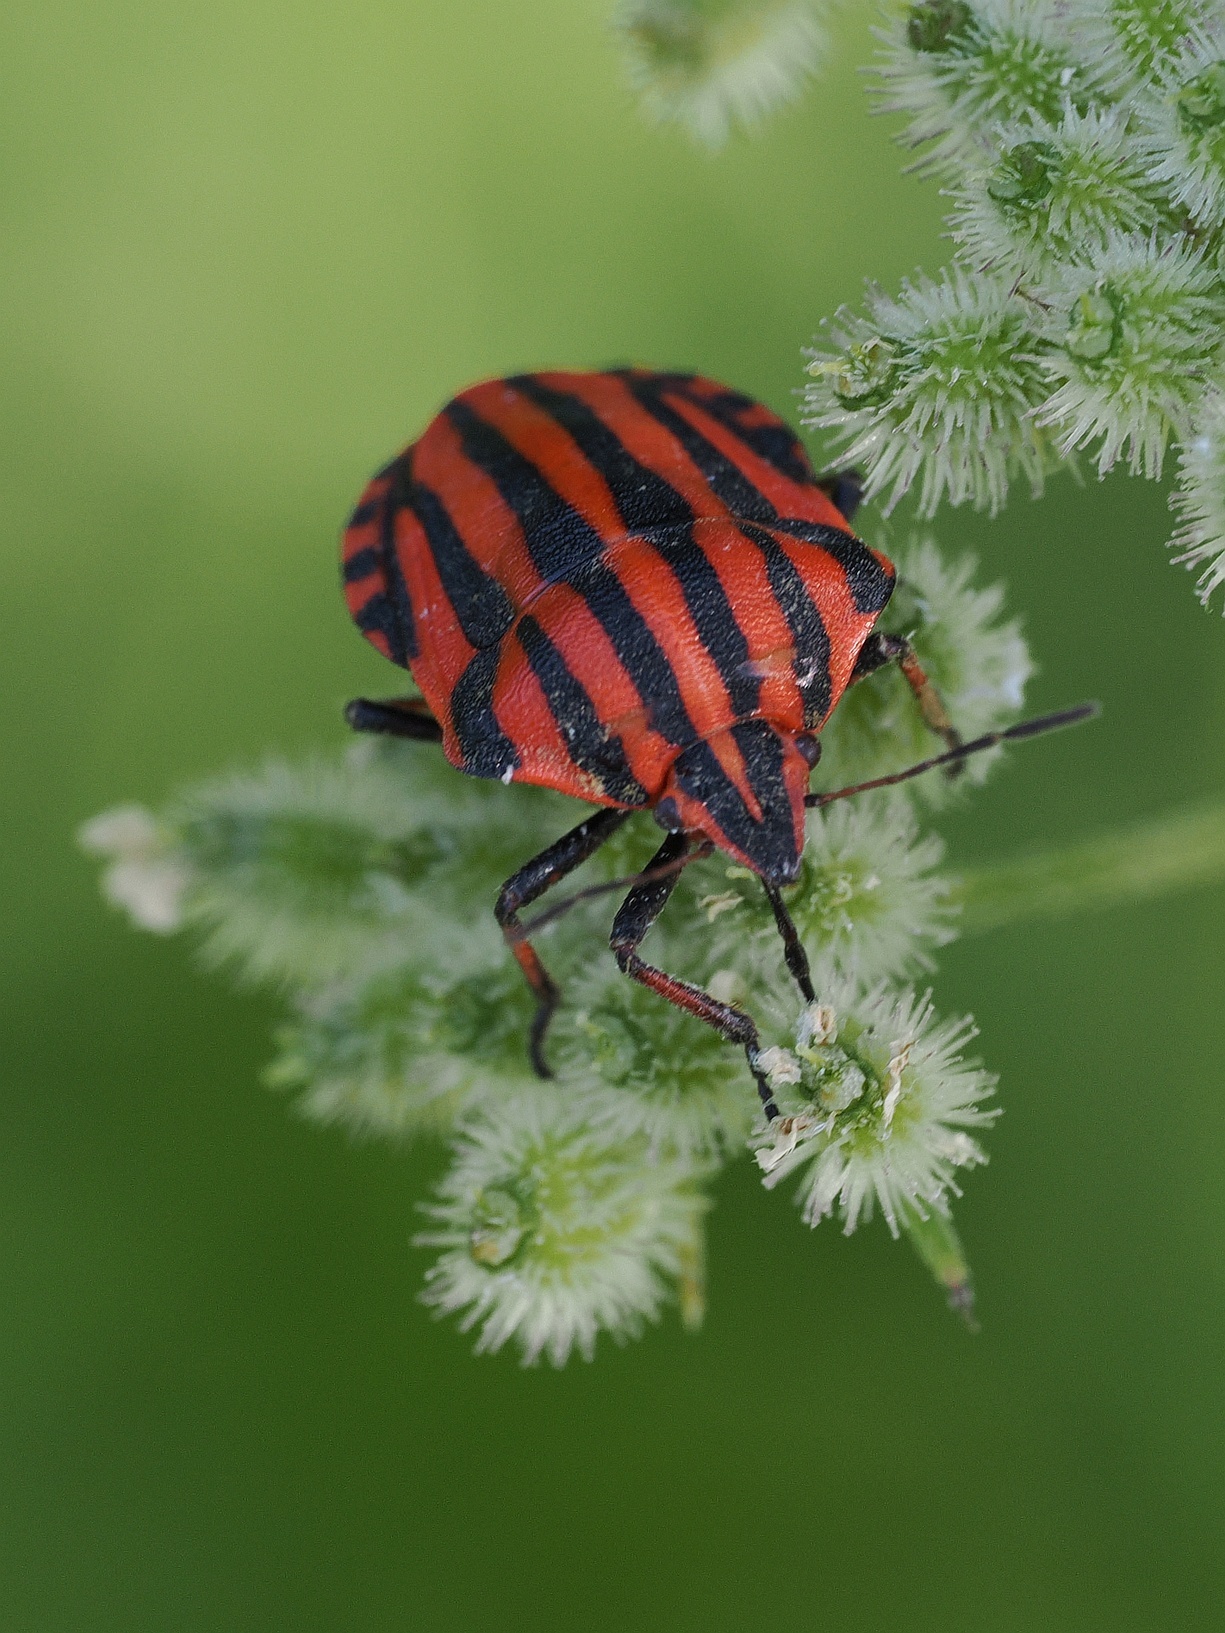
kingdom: Animalia
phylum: Arthropoda
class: Insecta
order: Hemiptera
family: Pentatomidae
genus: Graphosoma
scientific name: Graphosoma italicum
